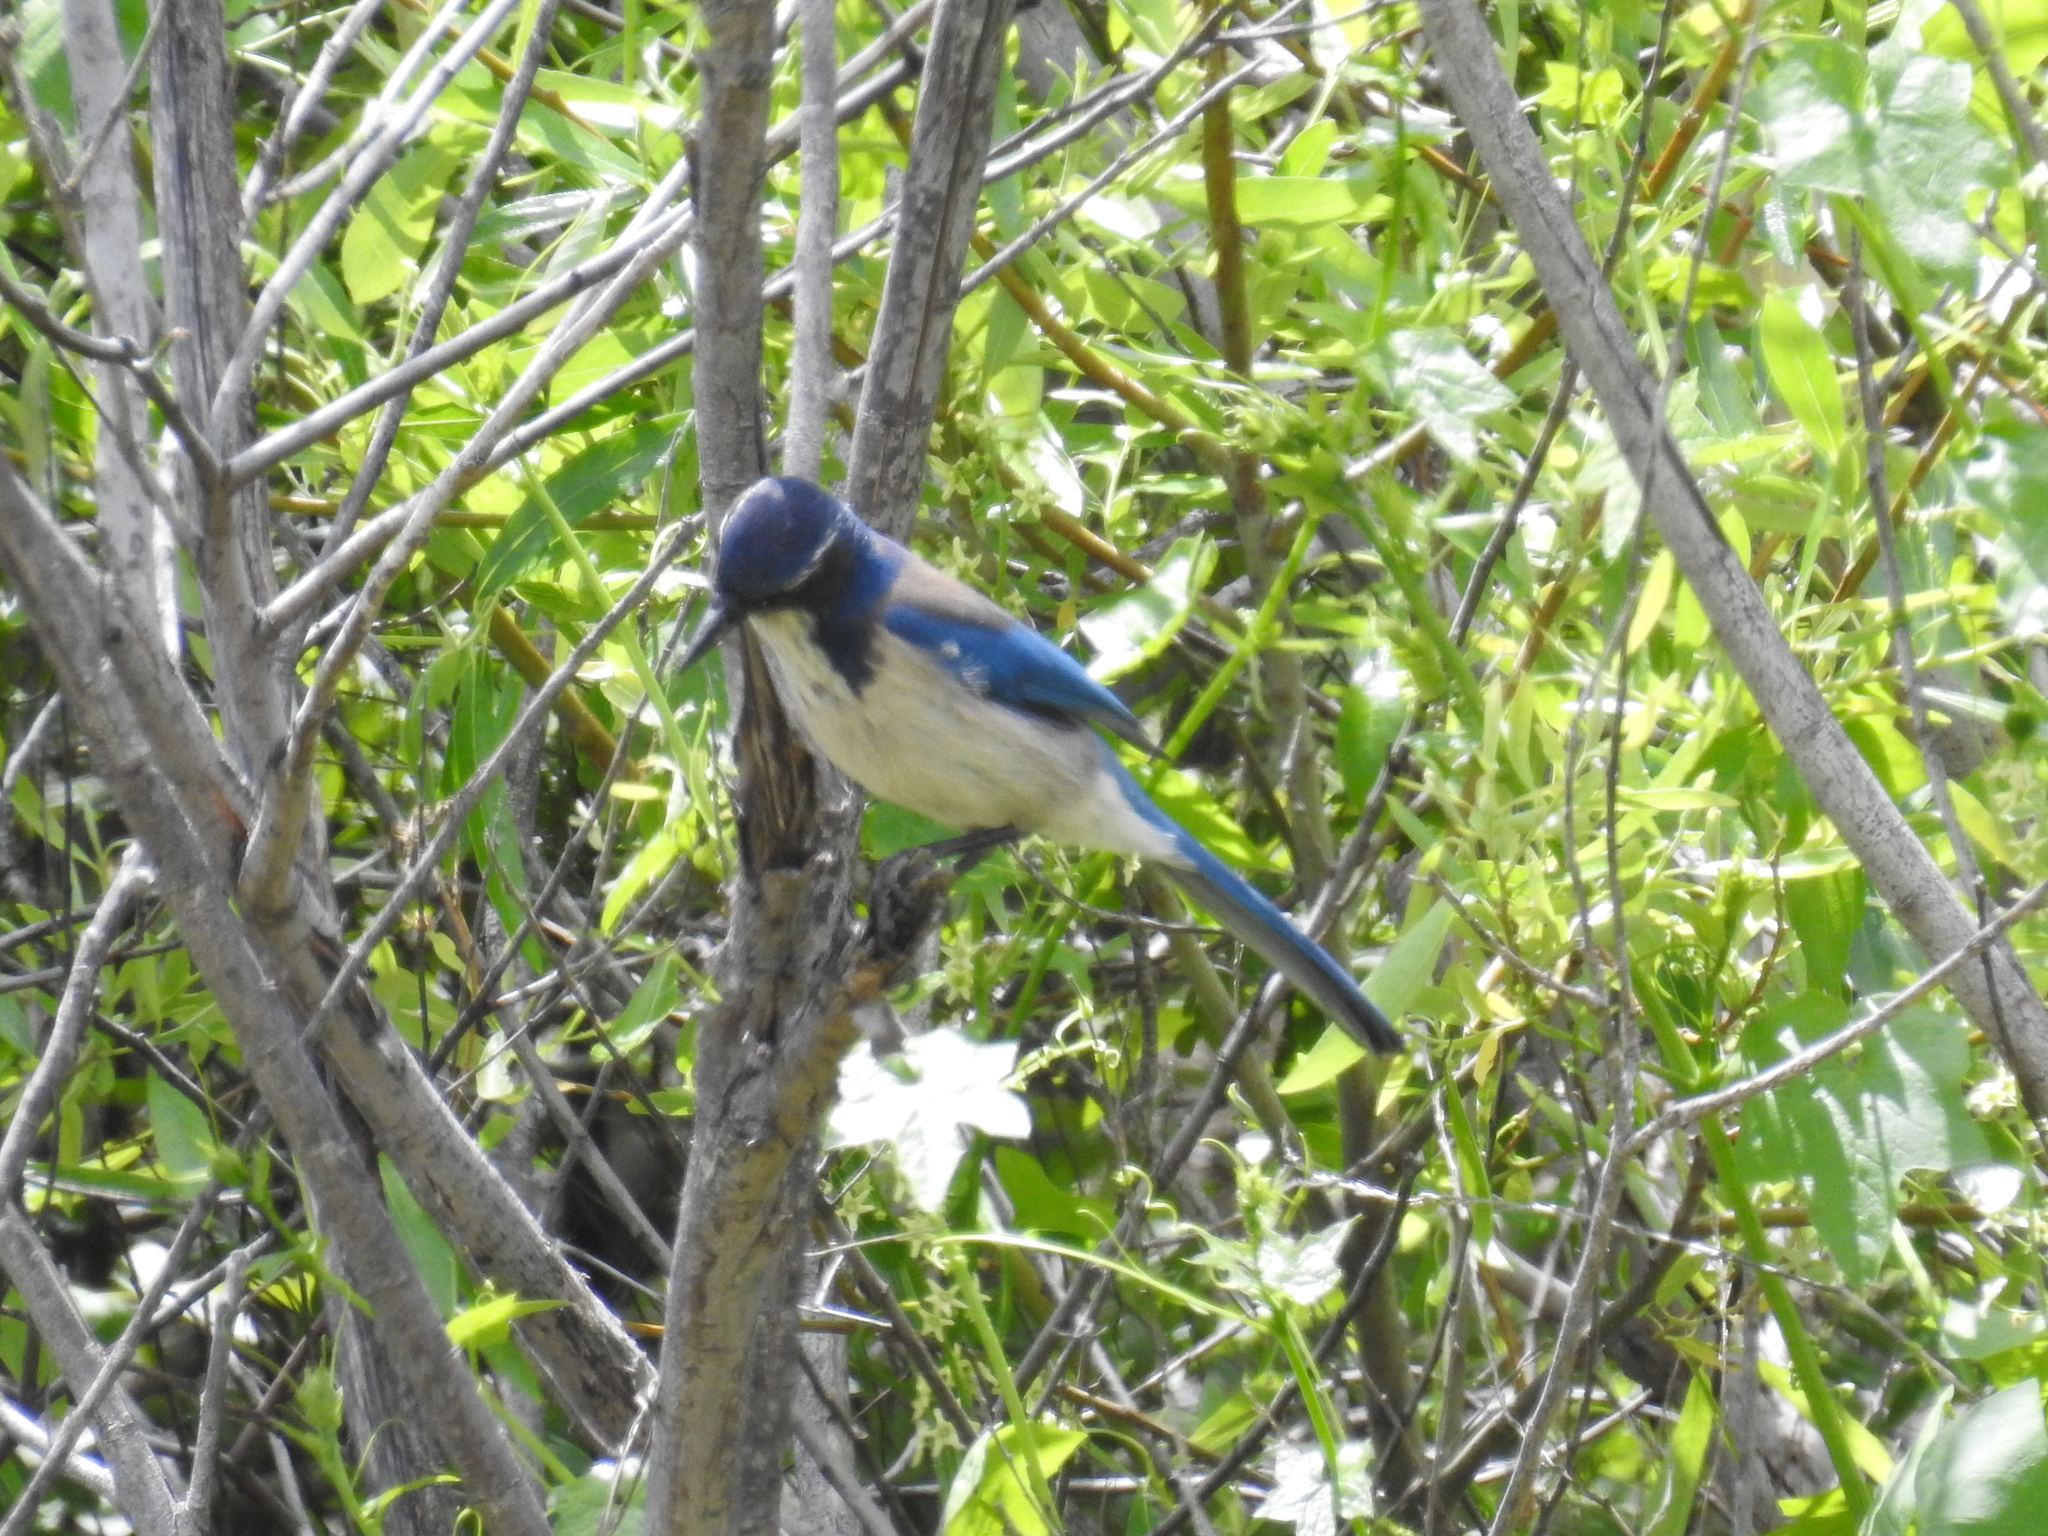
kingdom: Animalia
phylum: Chordata
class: Aves
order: Passeriformes
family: Corvidae
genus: Aphelocoma
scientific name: Aphelocoma californica
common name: California scrub-jay
